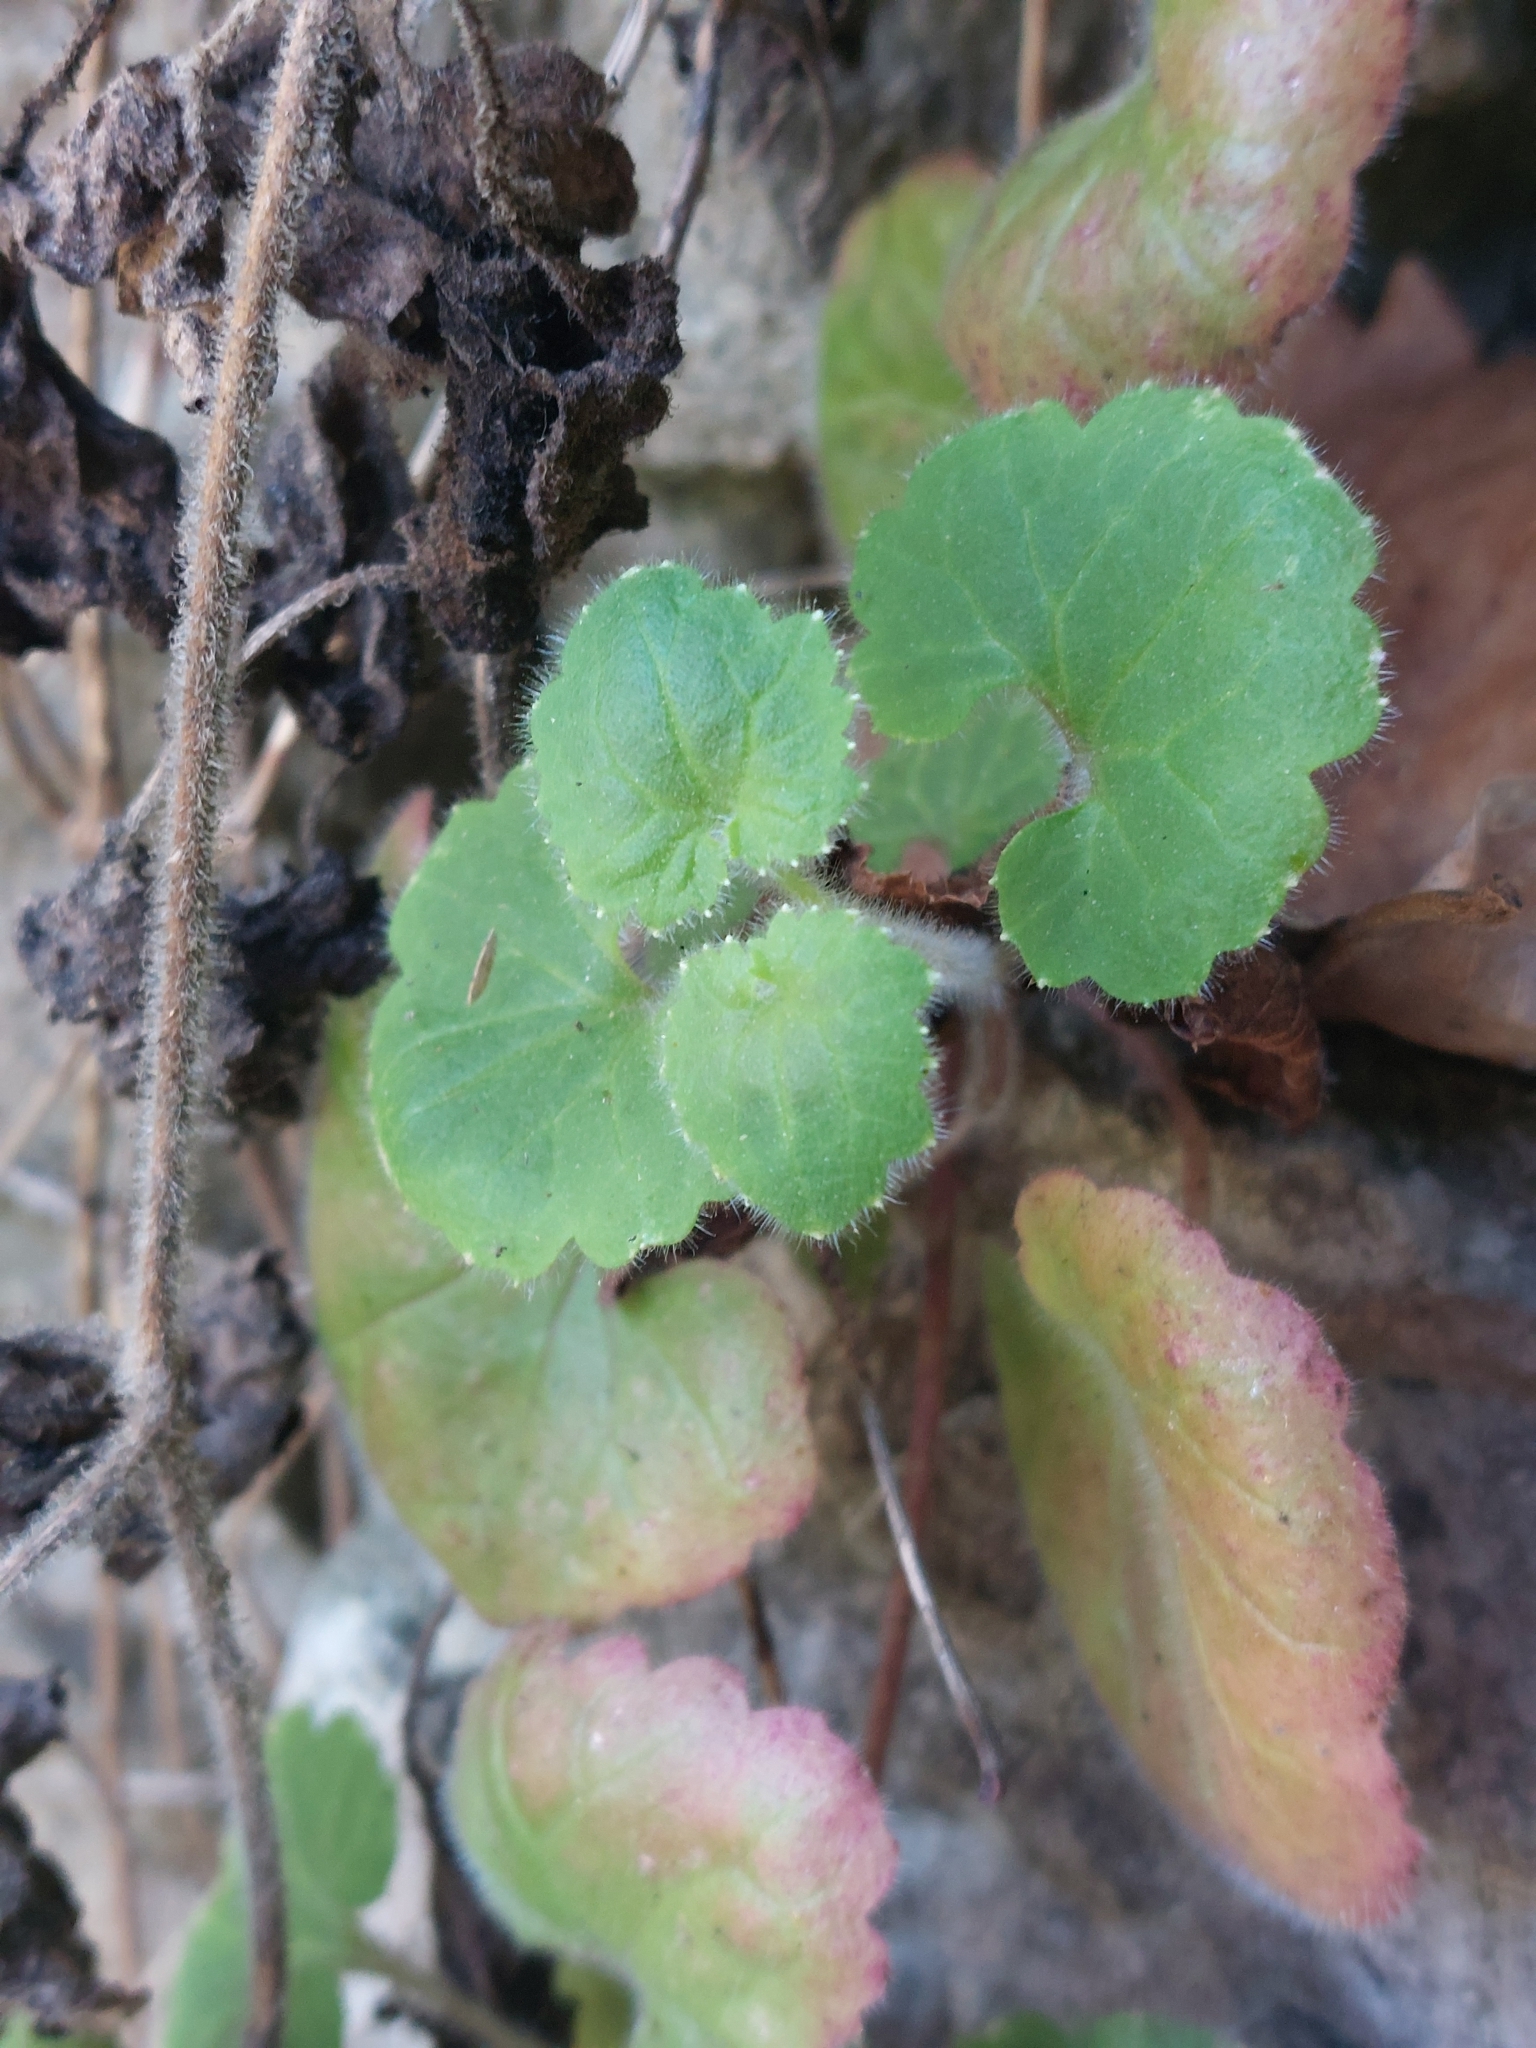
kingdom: Plantae
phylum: Tracheophyta
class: Magnoliopsida
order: Lamiales
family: Plantaginaceae
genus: Asarina
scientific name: Asarina procumbens
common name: Trailing snapdragon
